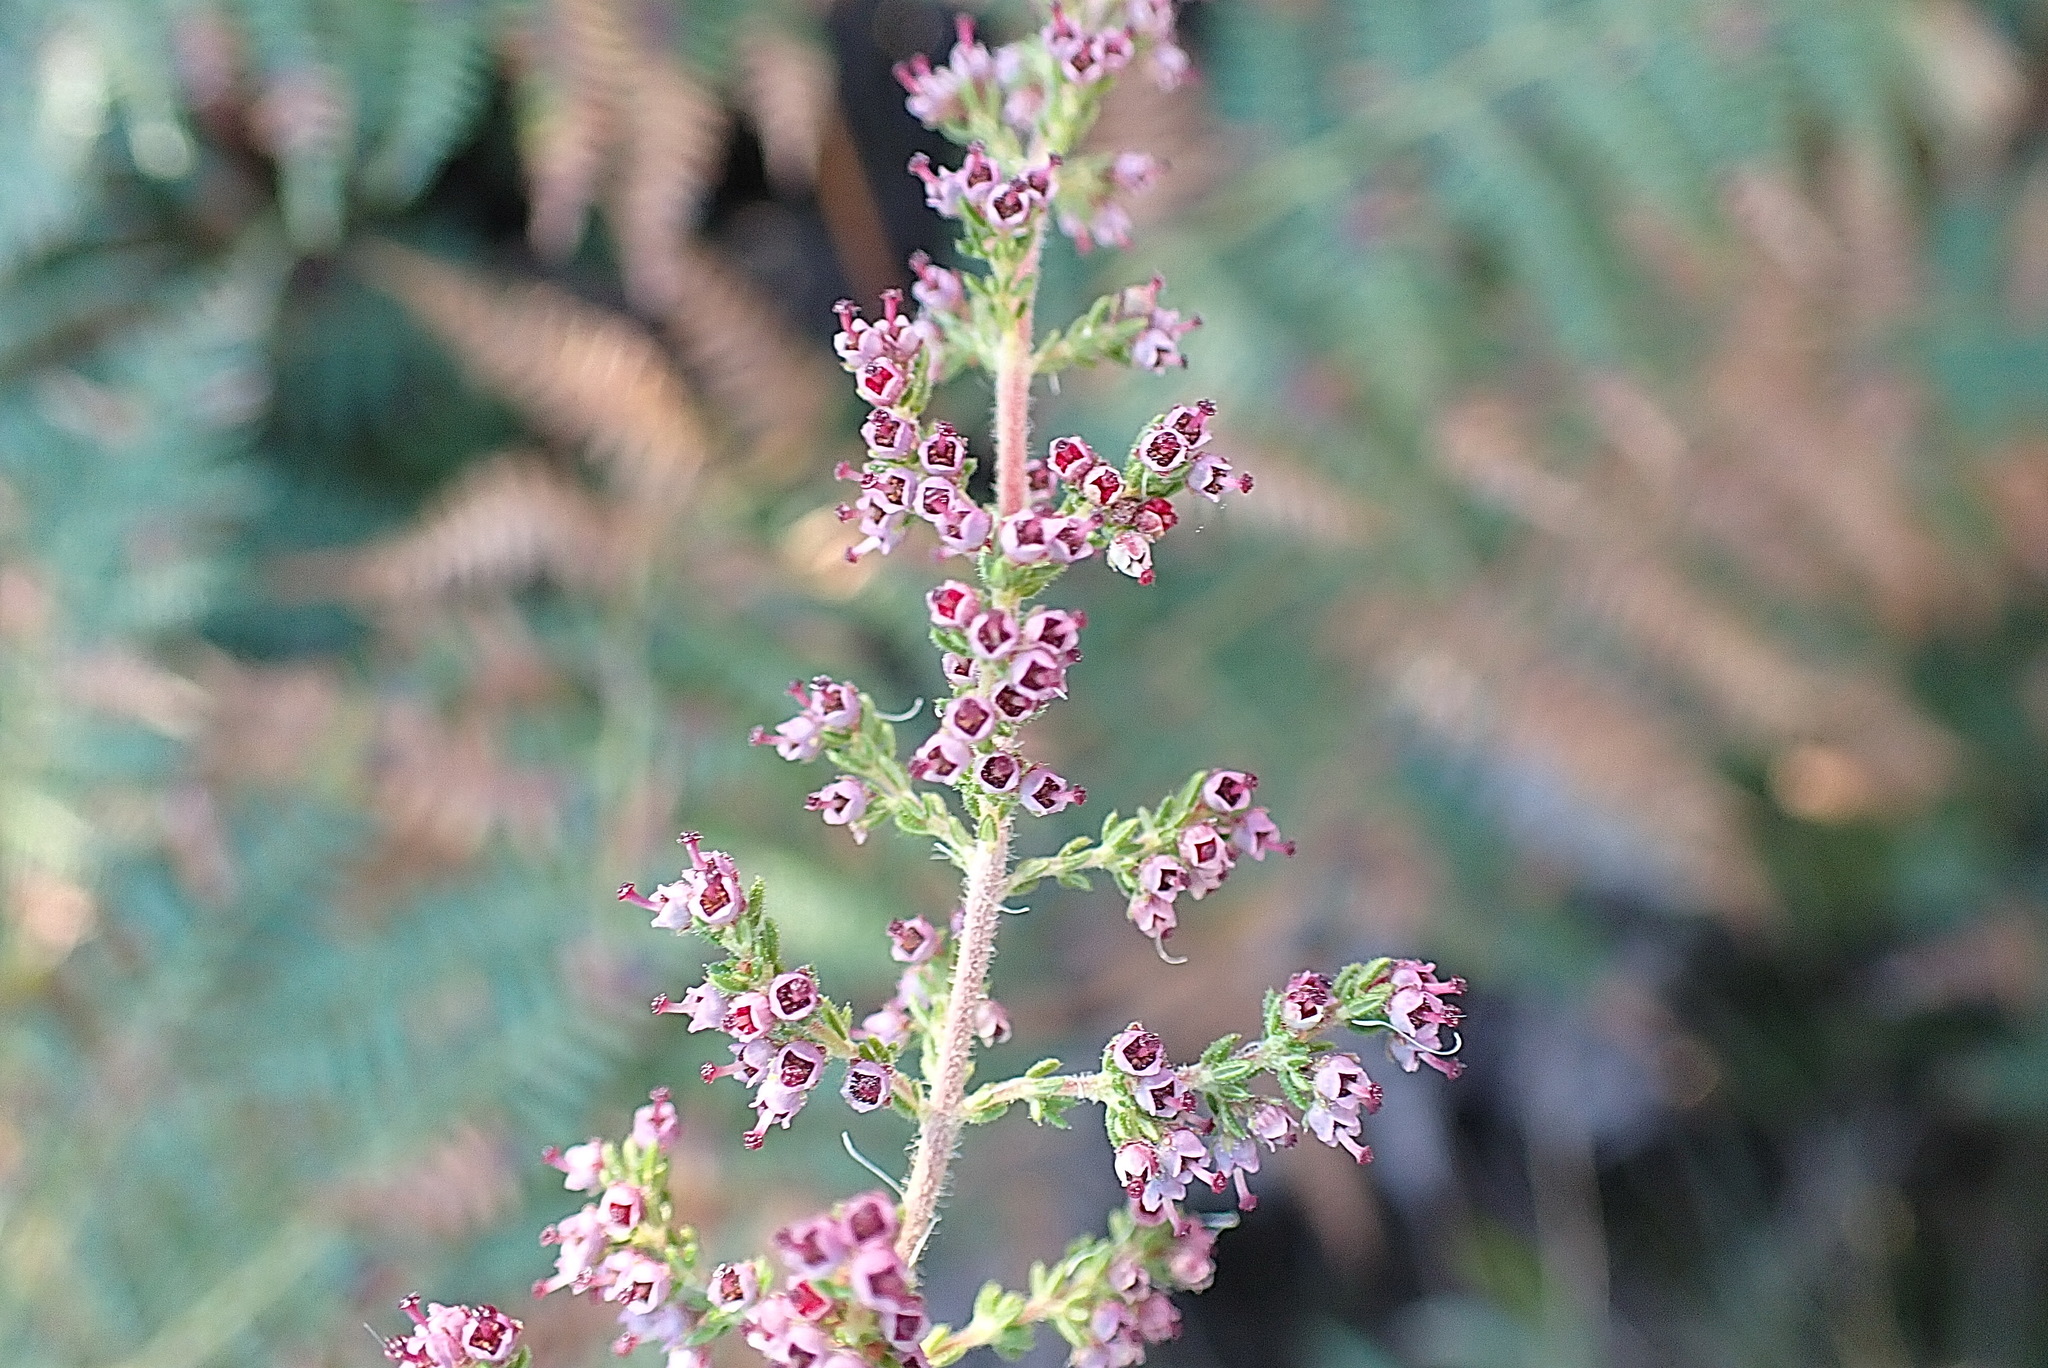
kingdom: Plantae
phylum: Tracheophyta
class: Magnoliopsida
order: Ericales
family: Ericaceae
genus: Erica
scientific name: Erica hispidula
